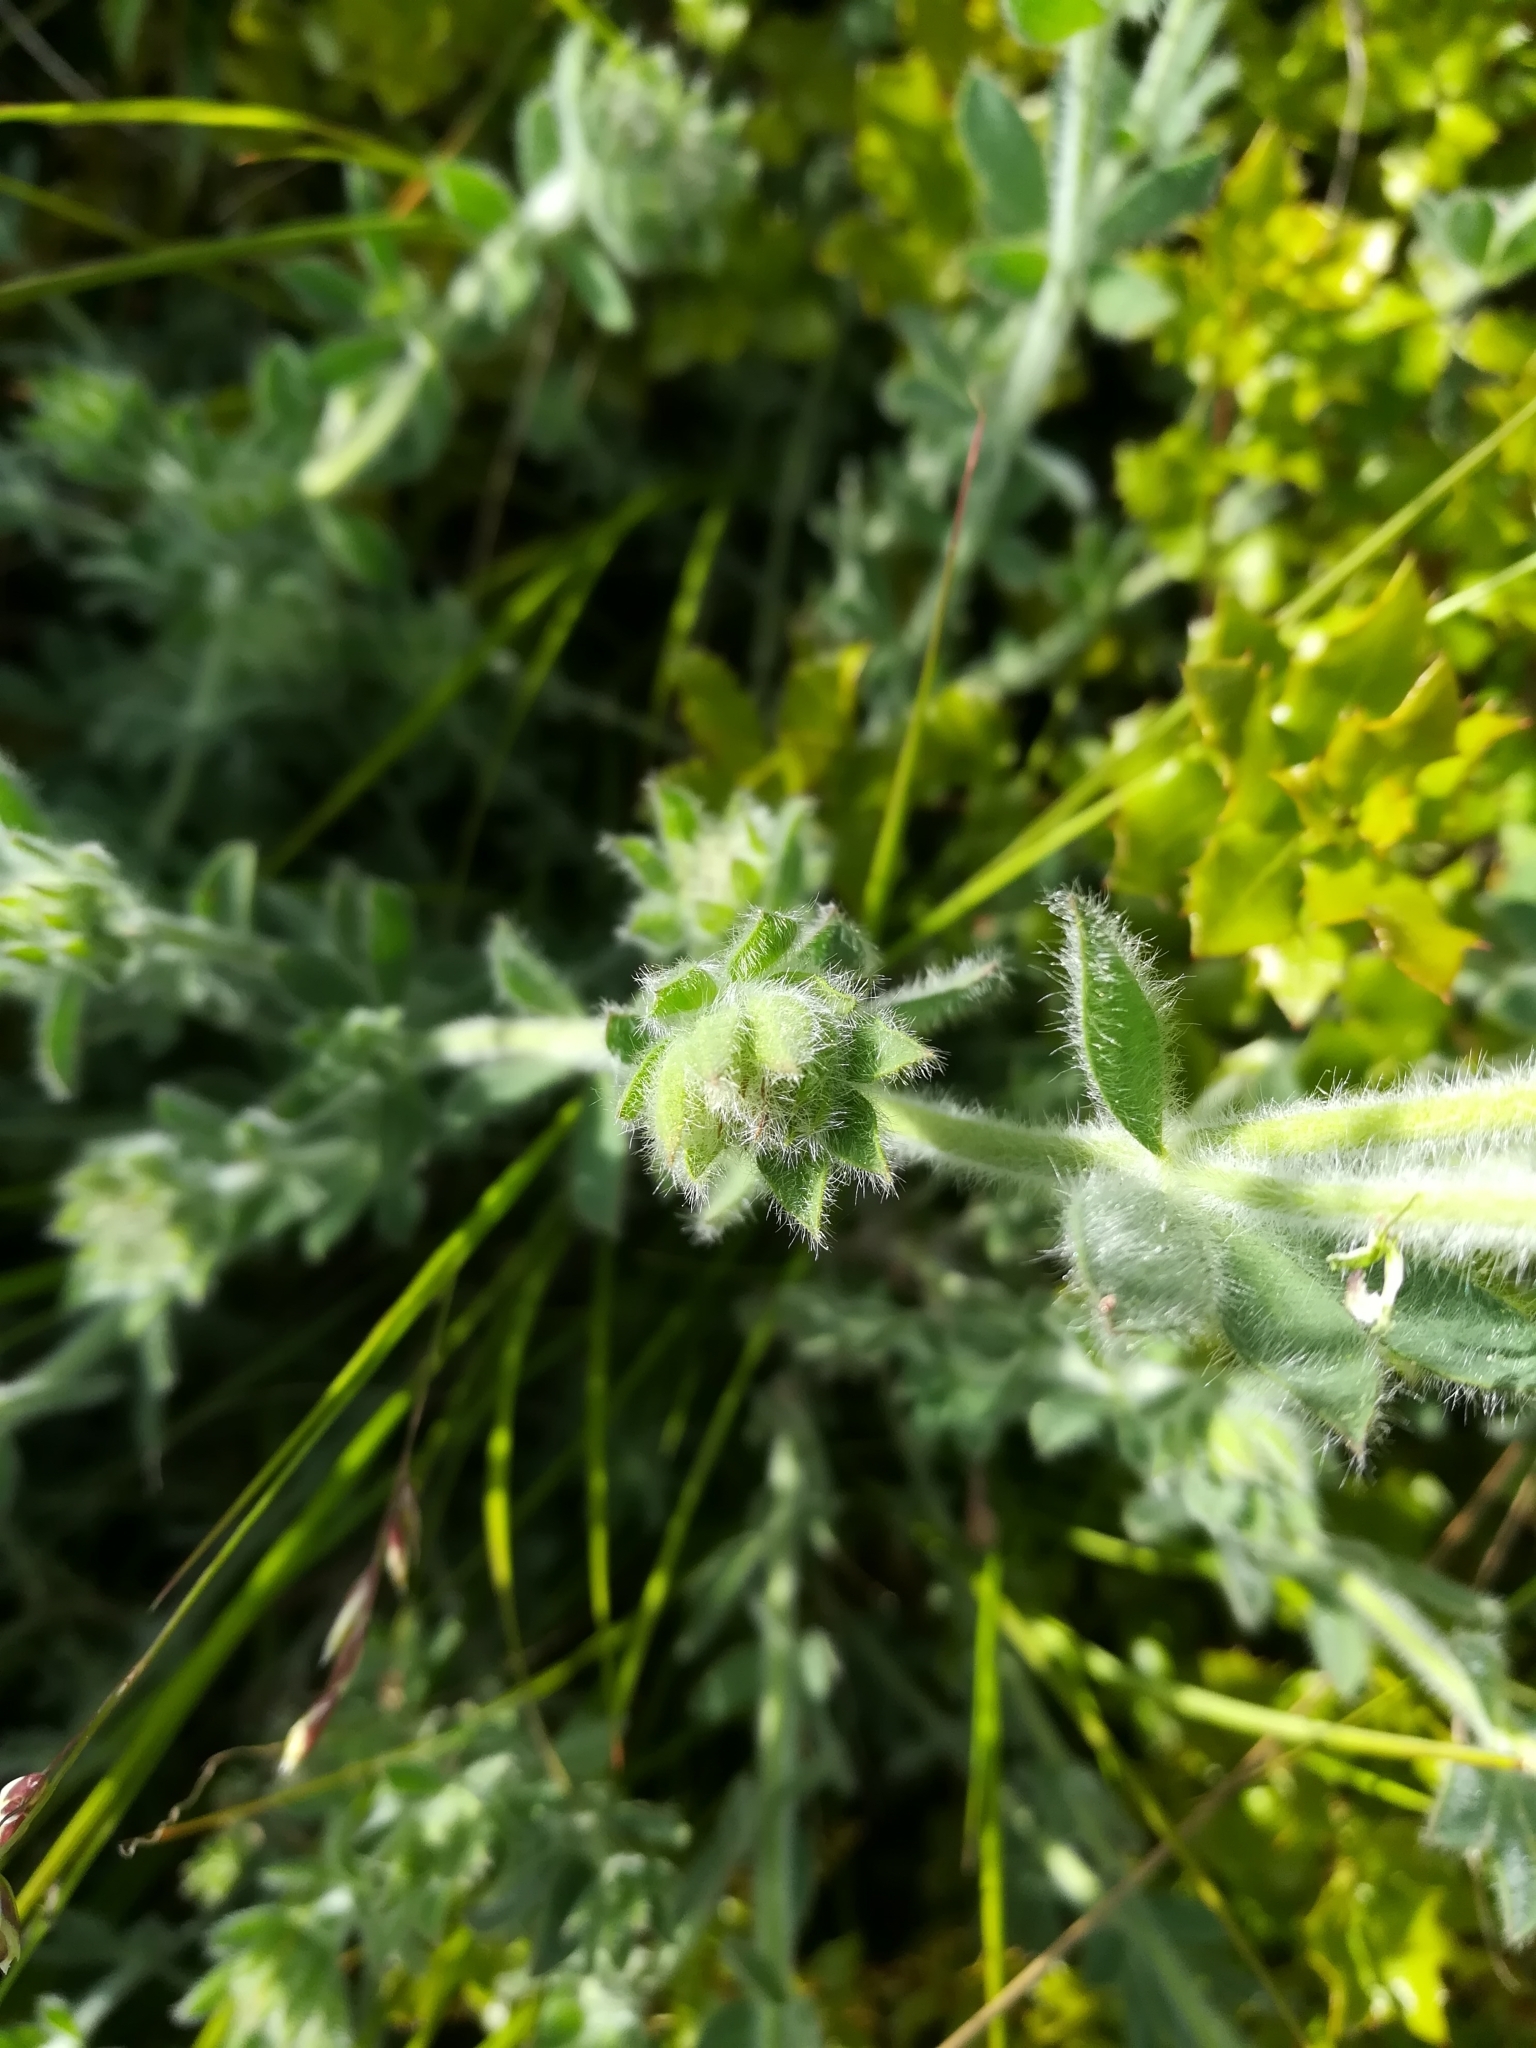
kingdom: Plantae
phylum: Tracheophyta
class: Magnoliopsida
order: Fabales
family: Fabaceae
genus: Lotus
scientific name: Lotus hirsutus
